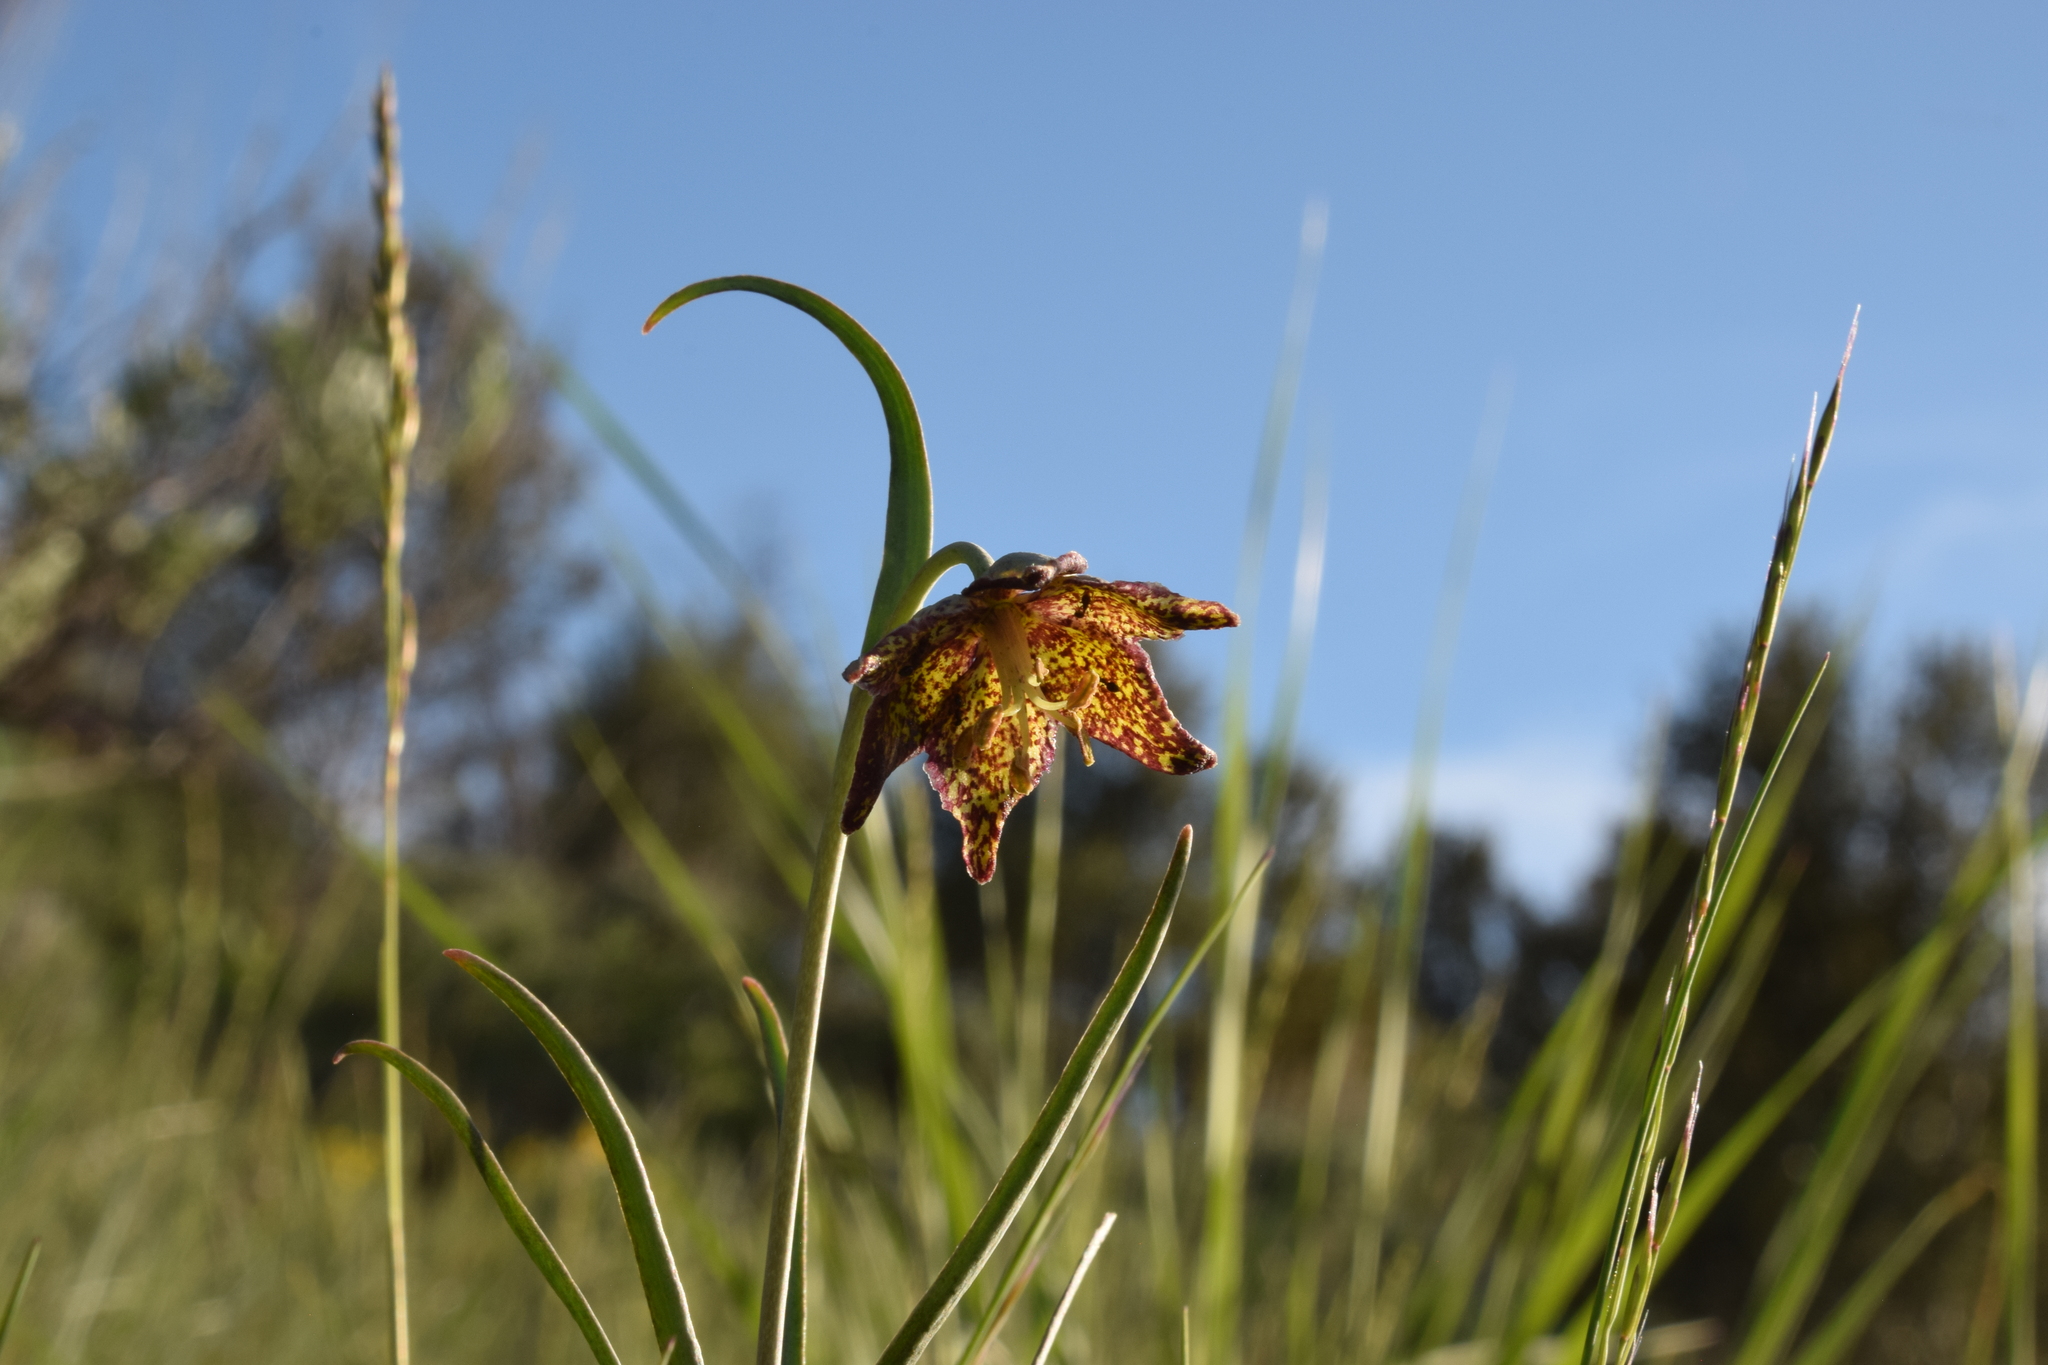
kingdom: Plantae
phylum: Tracheophyta
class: Liliopsida
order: Liliales
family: Liliaceae
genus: Fritillaria
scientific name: Fritillaria atropurpurea
